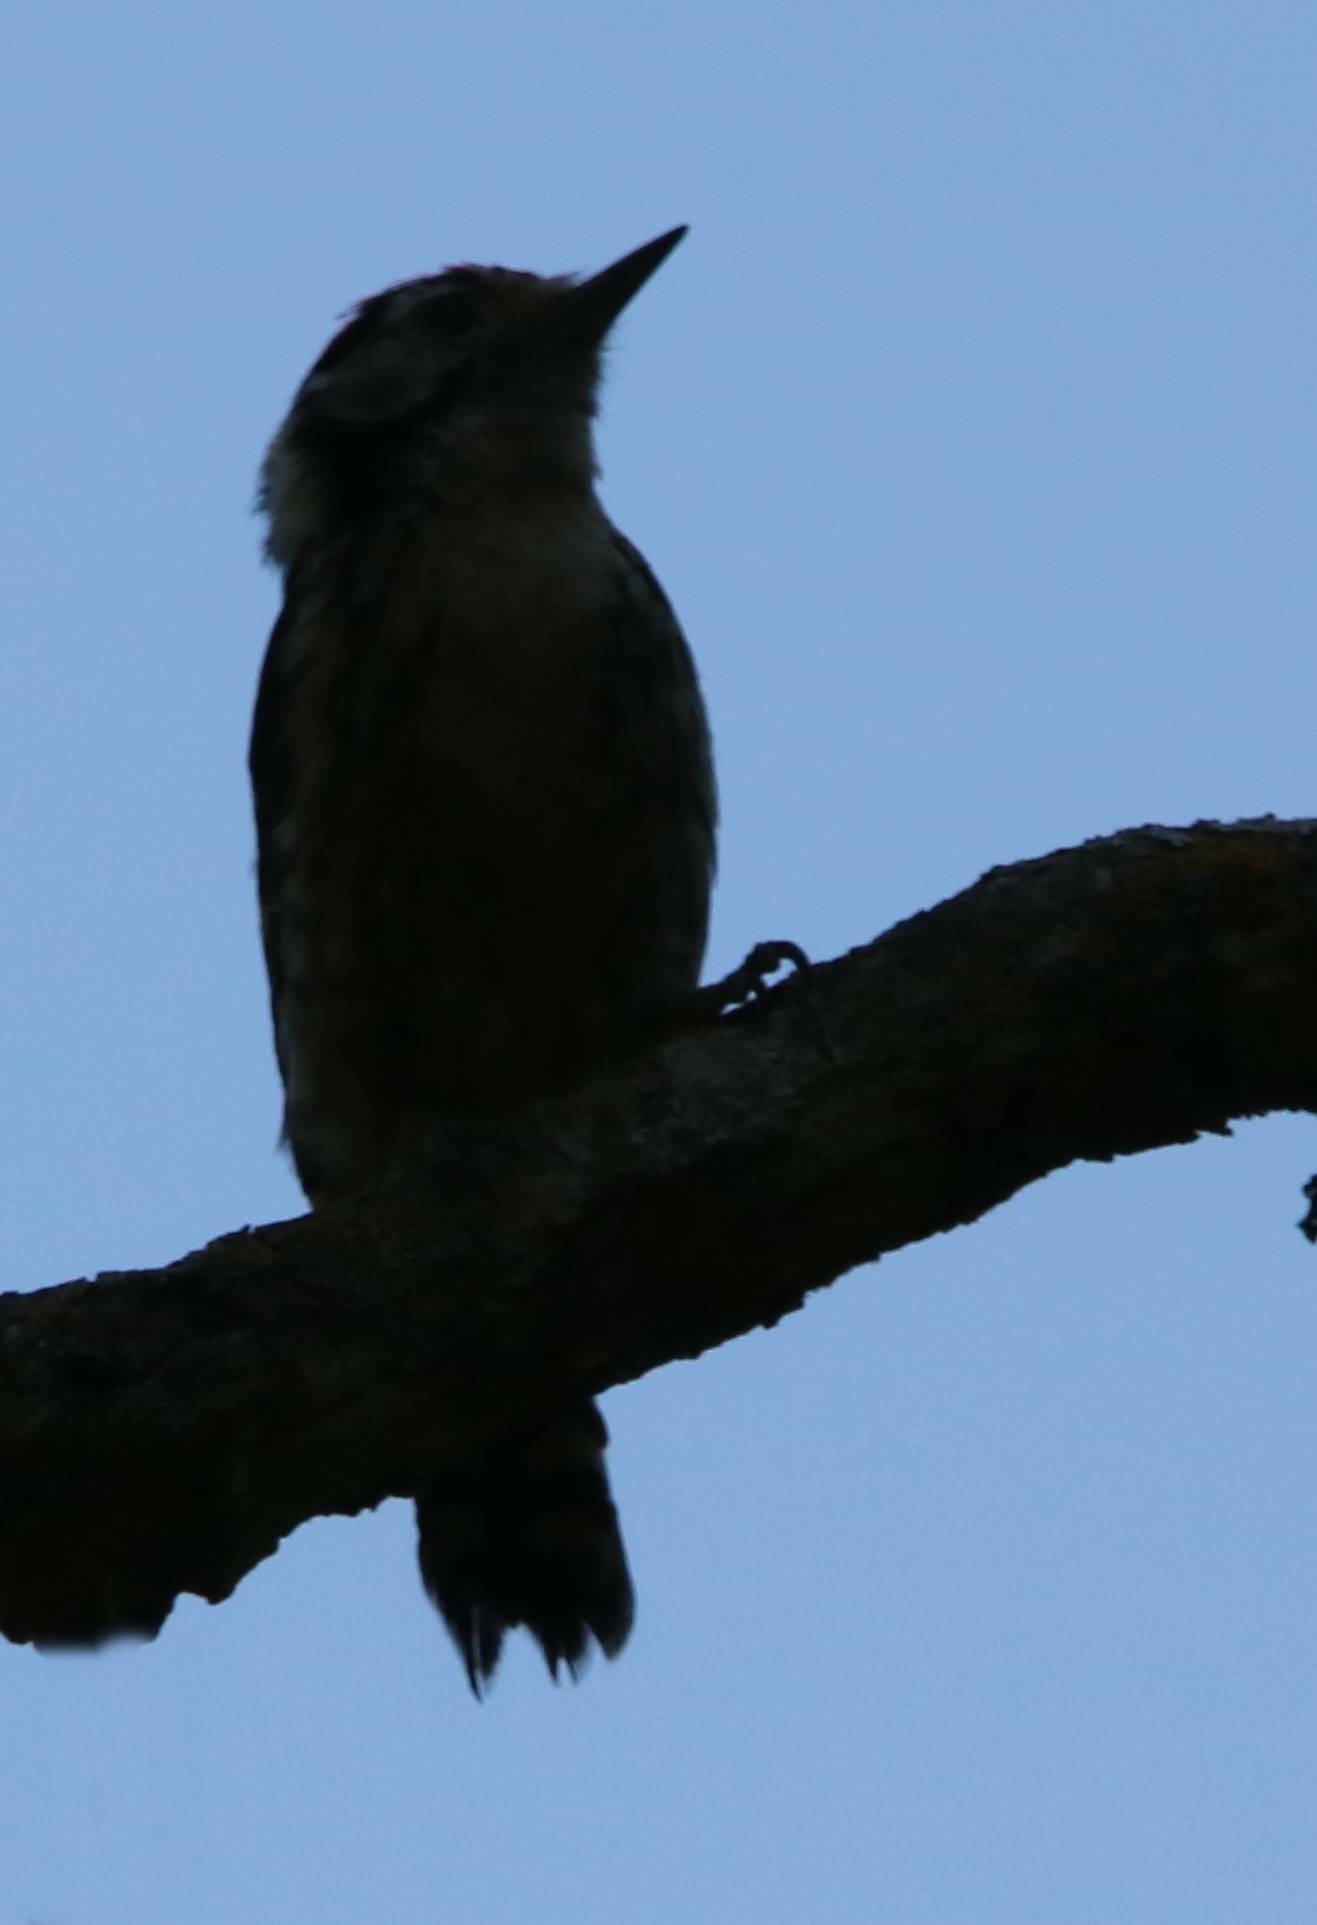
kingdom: Animalia
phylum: Chordata
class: Aves
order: Piciformes
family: Picidae
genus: Dryobates
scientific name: Dryobates minor
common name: Lesser spotted woodpecker
